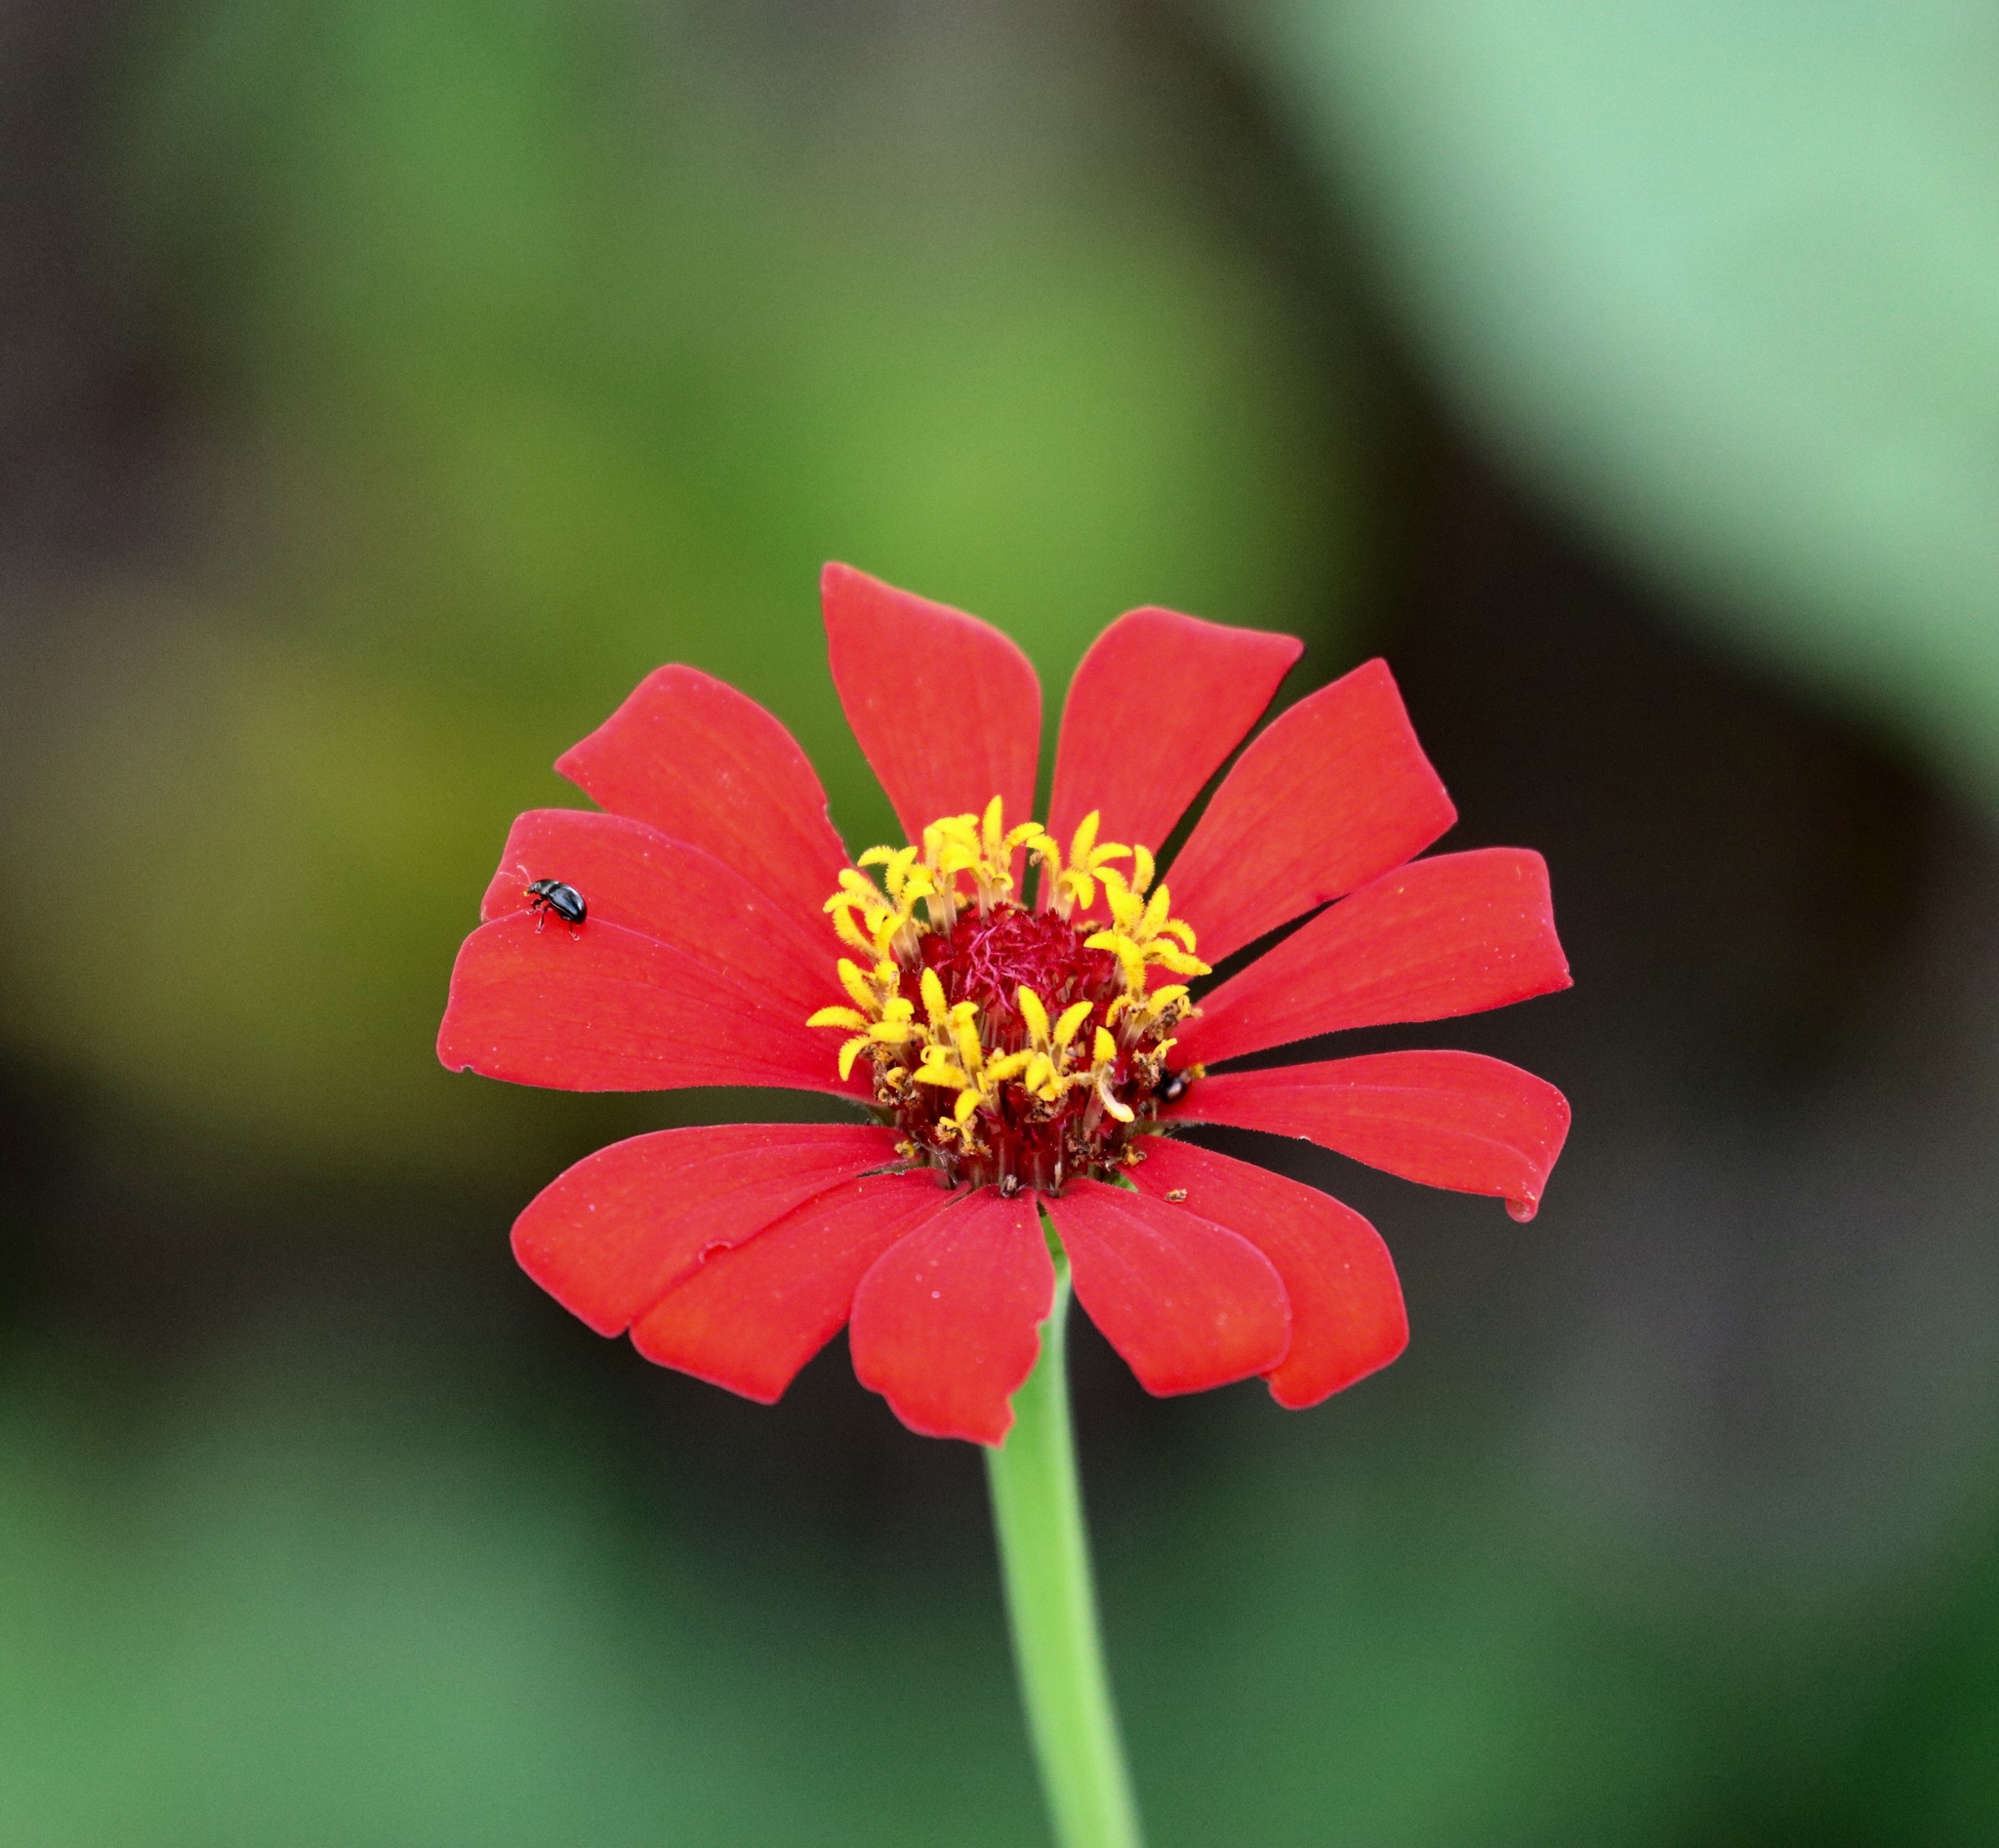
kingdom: Plantae
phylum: Tracheophyta
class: Magnoliopsida
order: Asterales
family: Asteraceae
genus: Zinnia
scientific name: Zinnia elegans
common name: Youth-and-age
